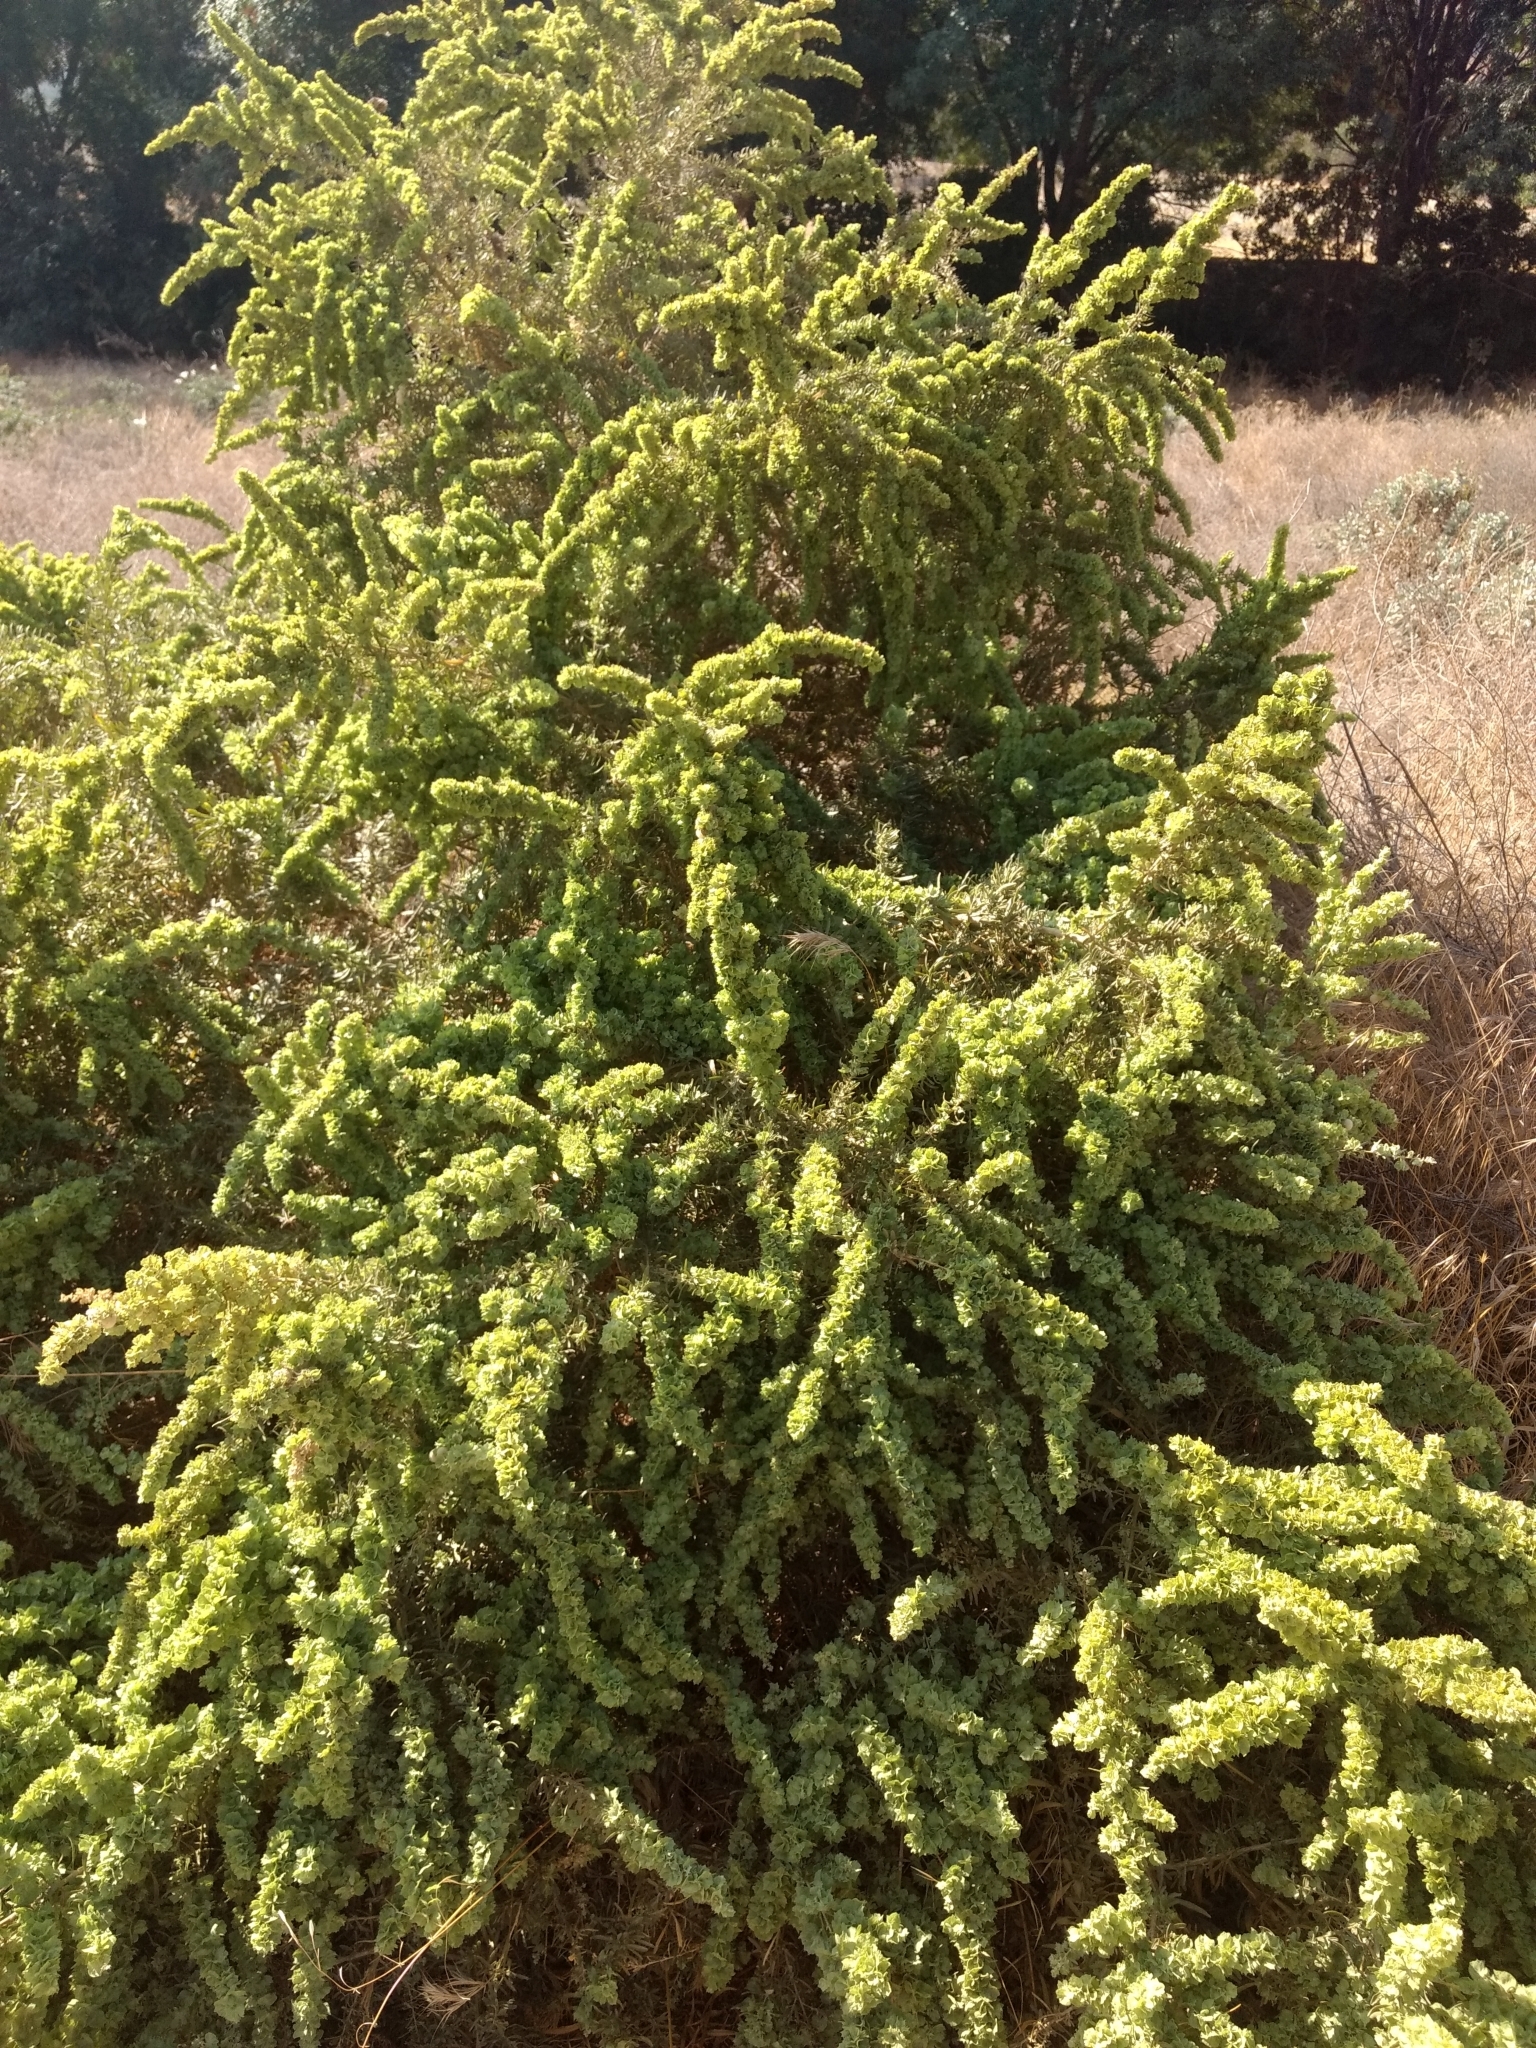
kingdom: Plantae
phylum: Tracheophyta
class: Magnoliopsida
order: Caryophyllales
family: Amaranthaceae
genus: Atriplex
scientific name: Atriplex canescens
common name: Four-wing saltbush
